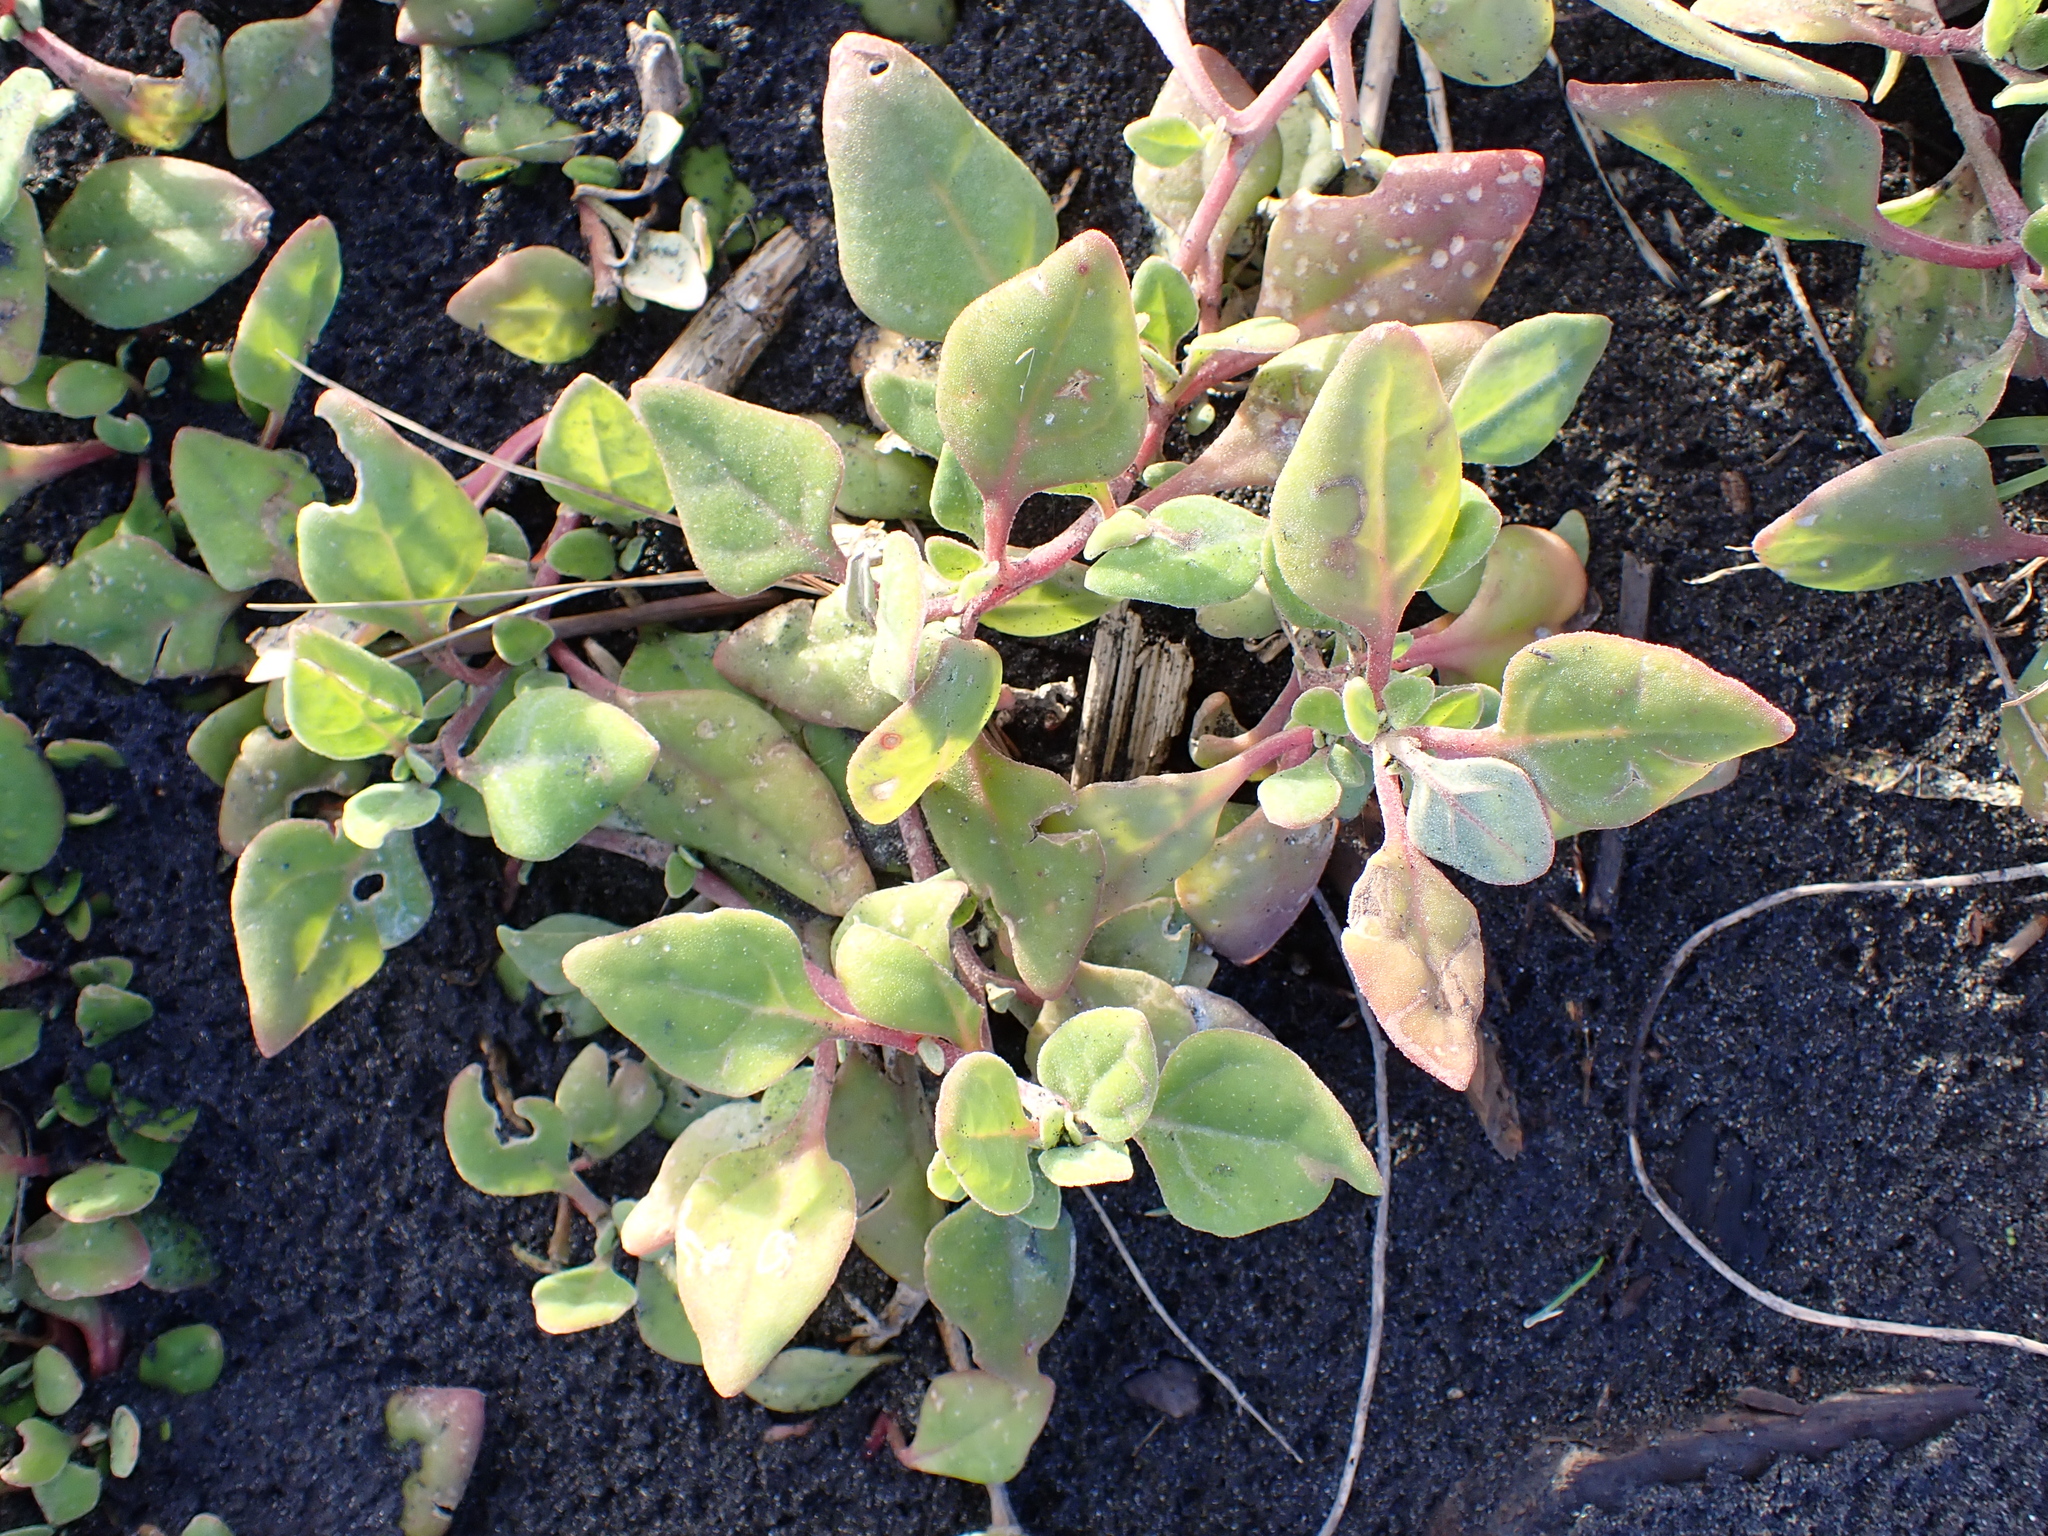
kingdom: Plantae
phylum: Tracheophyta
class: Magnoliopsida
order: Caryophyllales
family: Aizoaceae
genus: Tetragonia
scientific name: Tetragonia implexicoma
